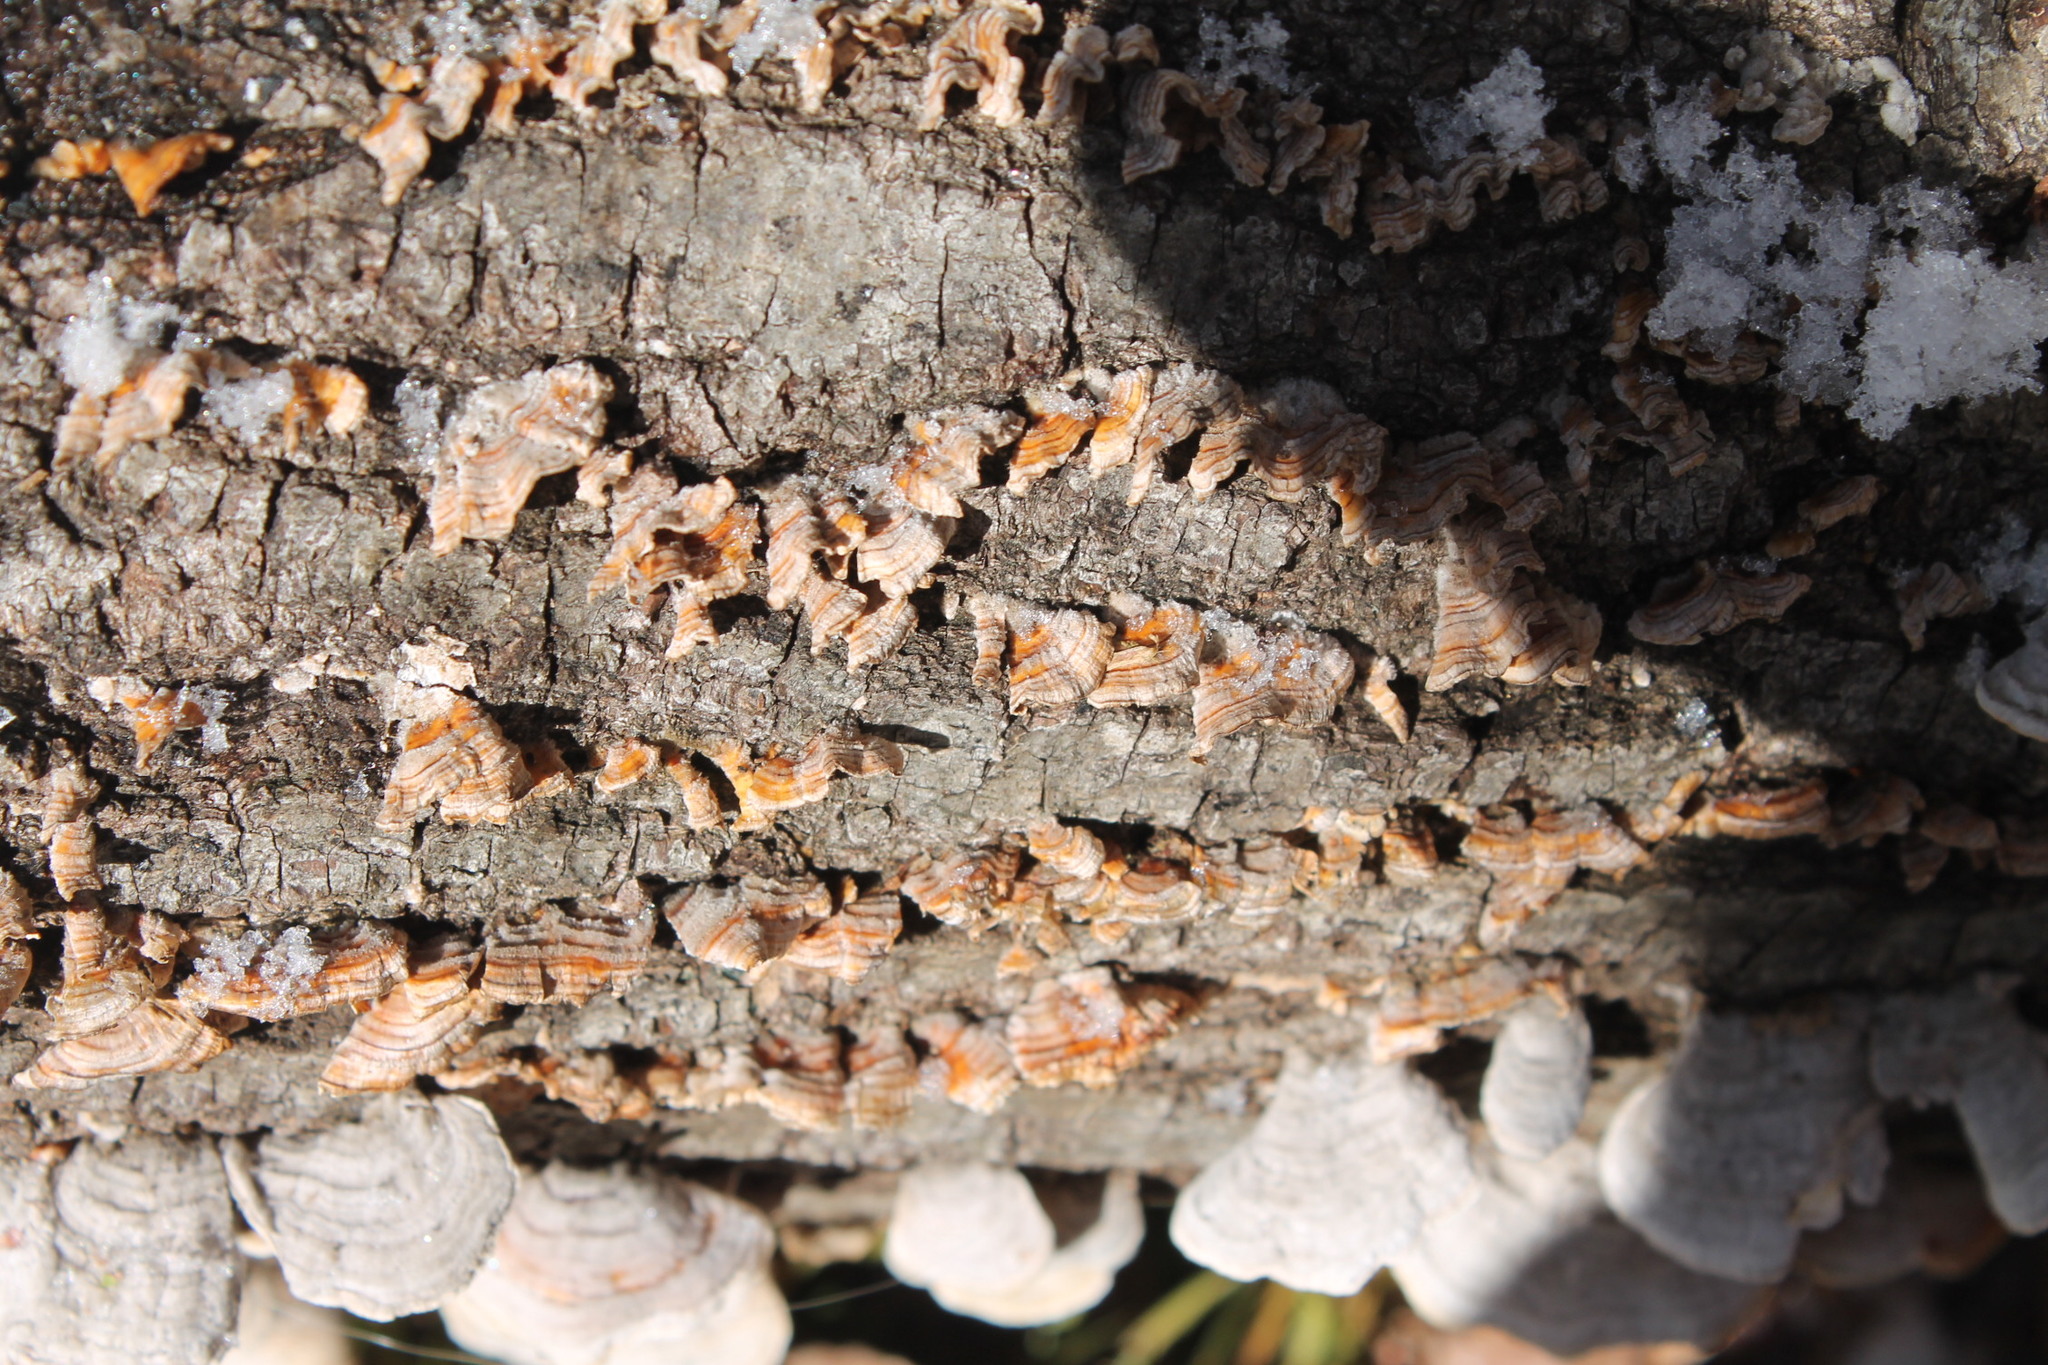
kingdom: Fungi
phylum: Basidiomycota
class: Agaricomycetes
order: Russulales
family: Stereaceae
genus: Stereum
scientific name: Stereum complicatum
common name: Crowded parchment
